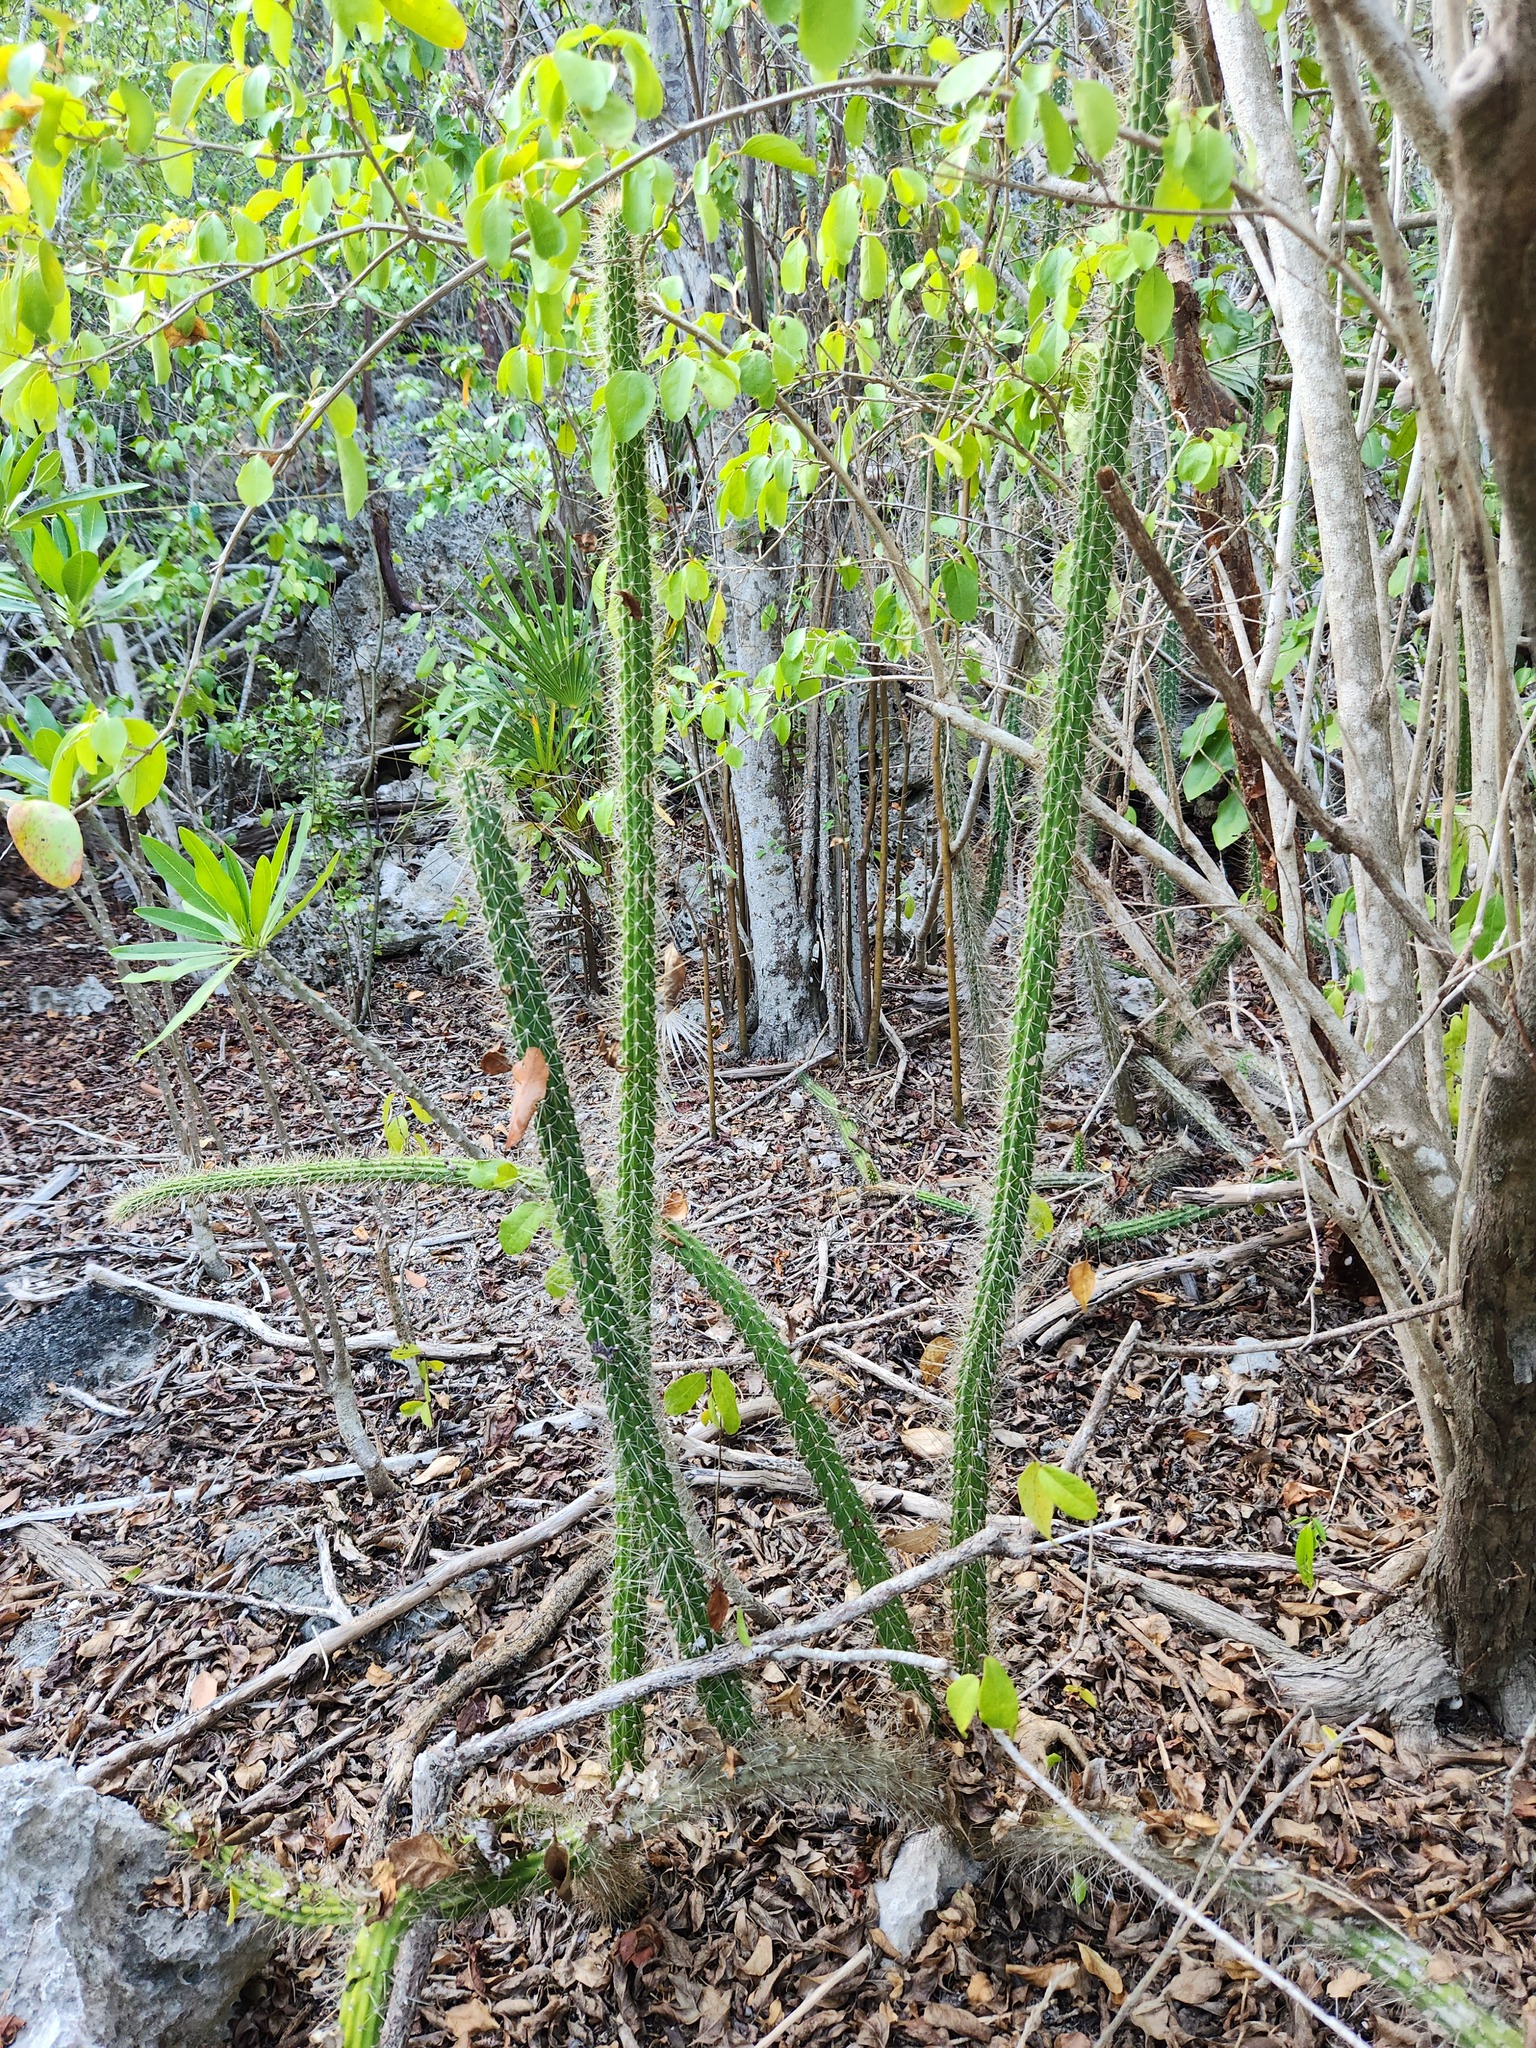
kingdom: Plantae
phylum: Tracheophyta
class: Magnoliopsida
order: Caryophyllales
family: Cactaceae
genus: Harrisia
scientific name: Harrisia caymanensis
